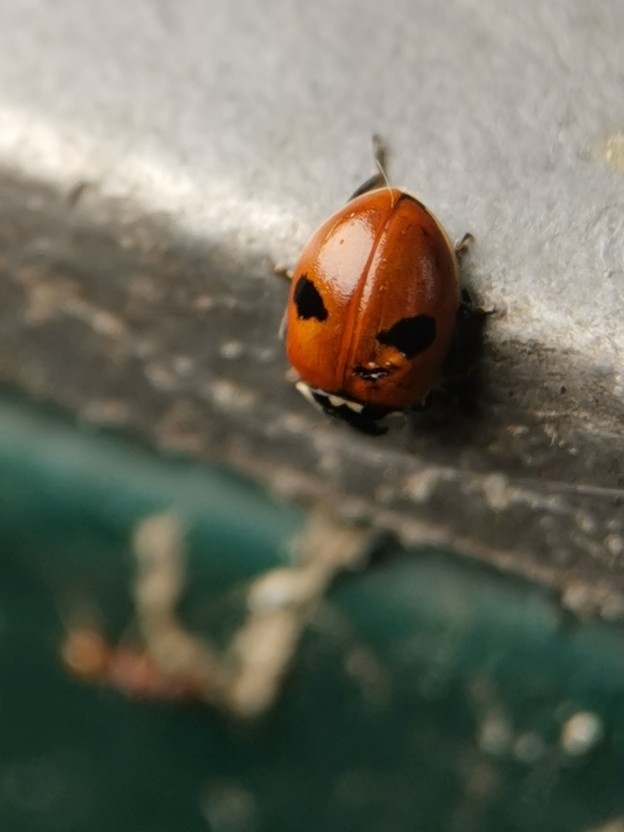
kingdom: Animalia
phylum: Arthropoda
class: Insecta
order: Coleoptera
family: Coccinellidae
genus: Adalia
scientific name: Adalia bipunctata
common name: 2-spot ladybird
